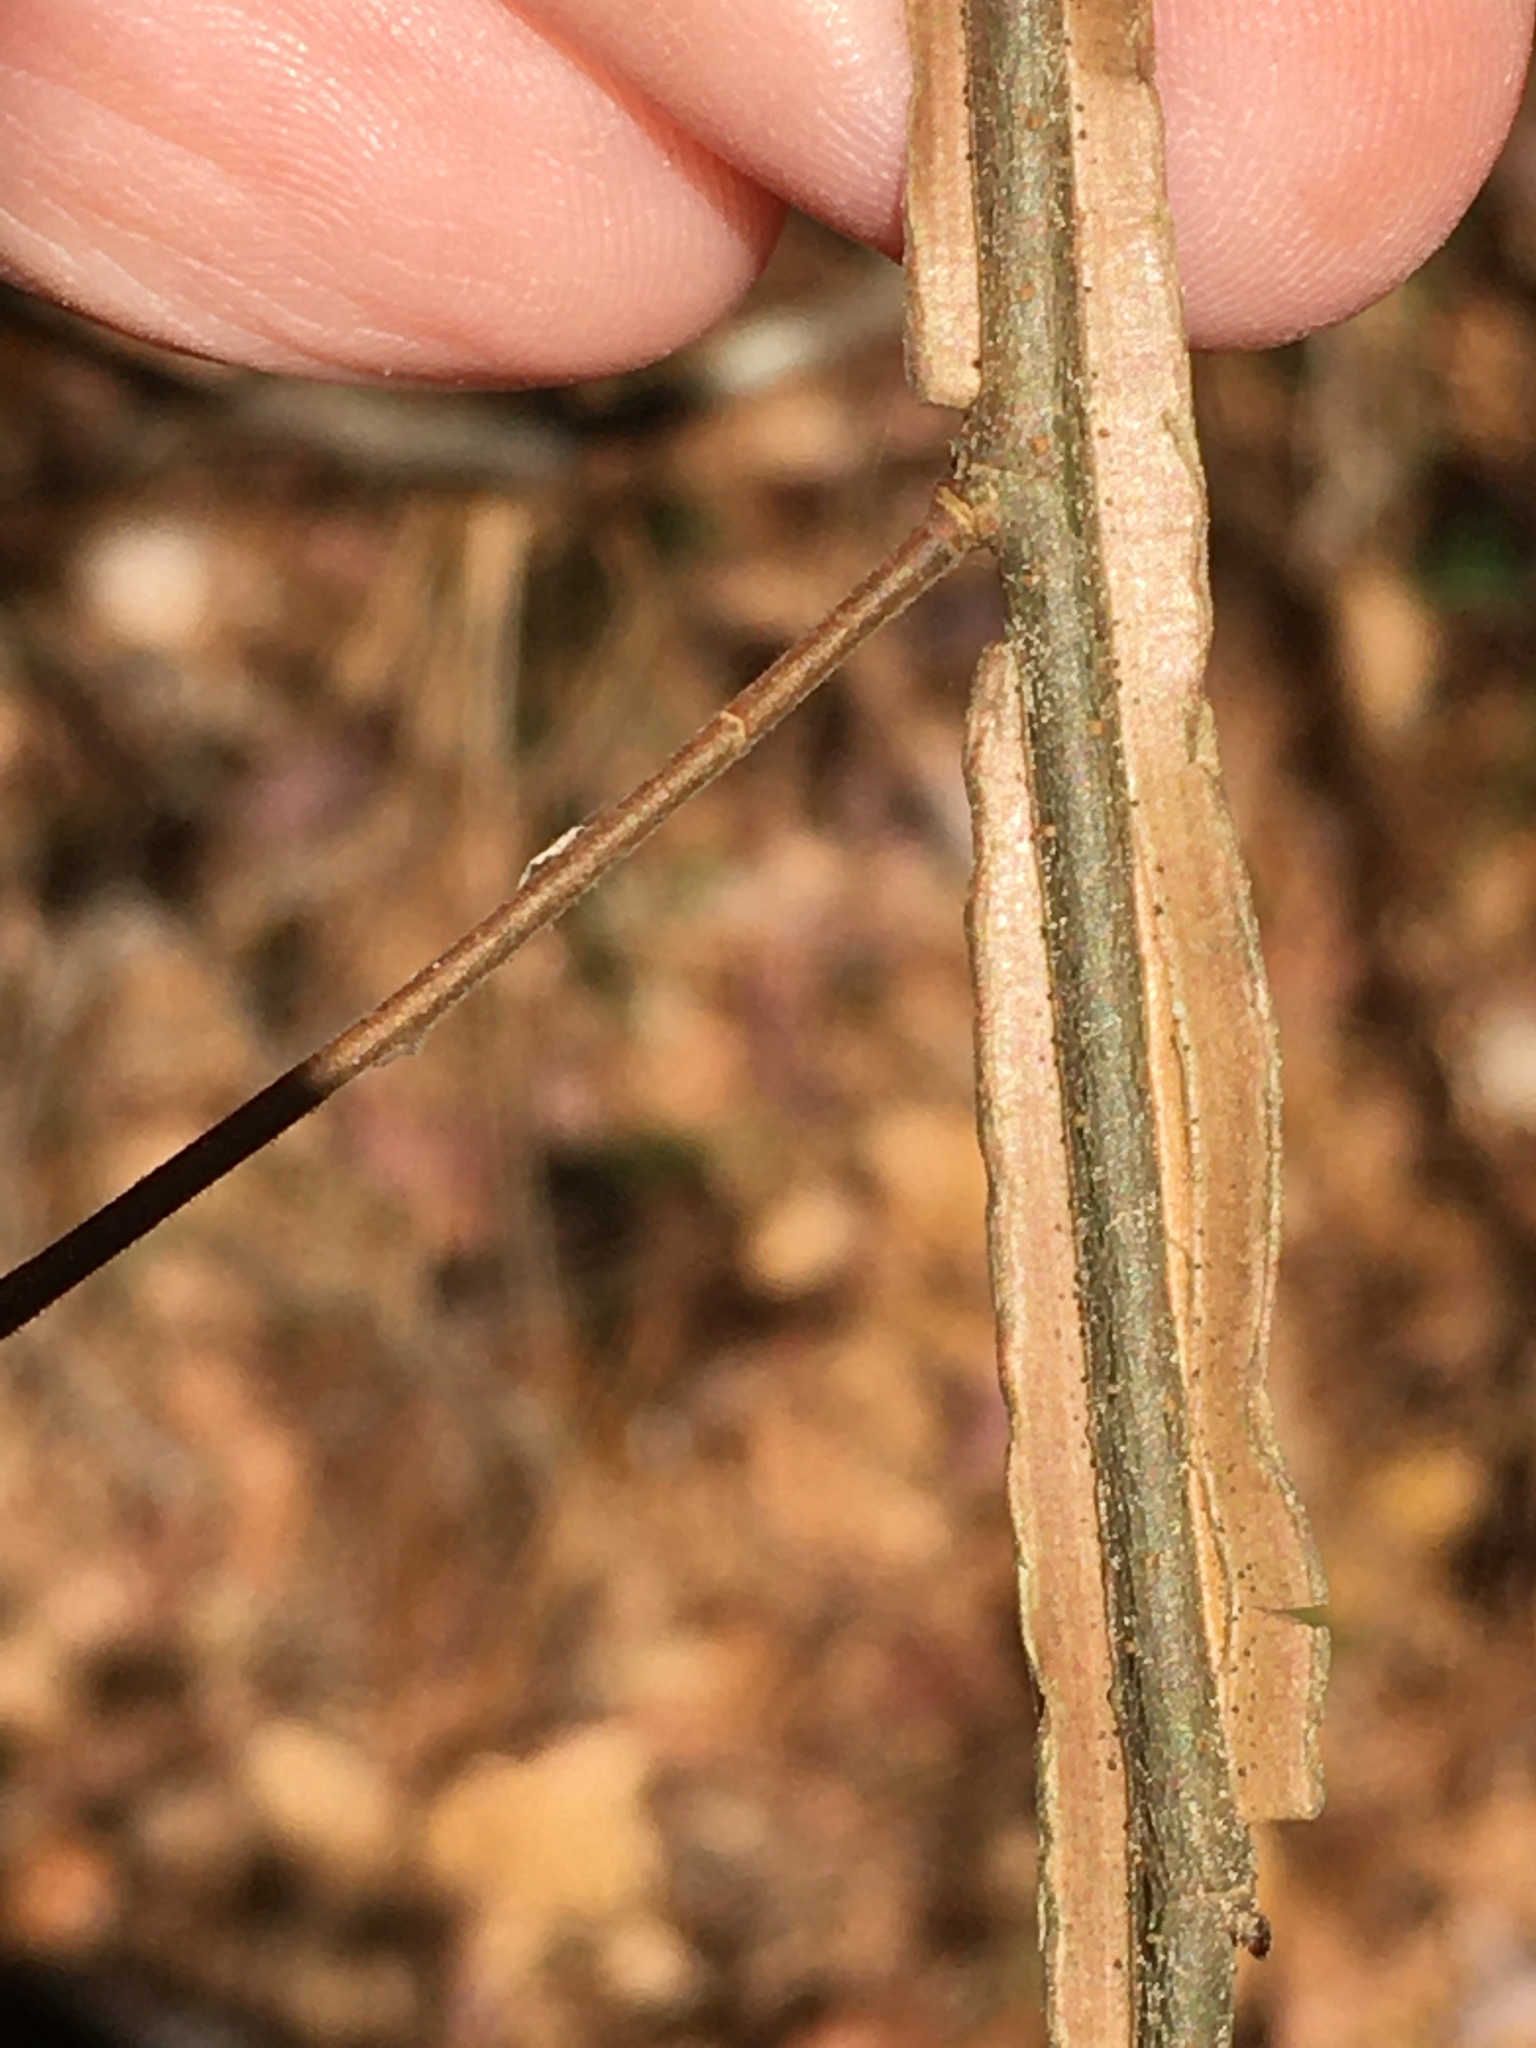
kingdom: Plantae
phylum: Tracheophyta
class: Magnoliopsida
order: Rosales
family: Ulmaceae
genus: Ulmus
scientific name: Ulmus alata
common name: Winged elm
